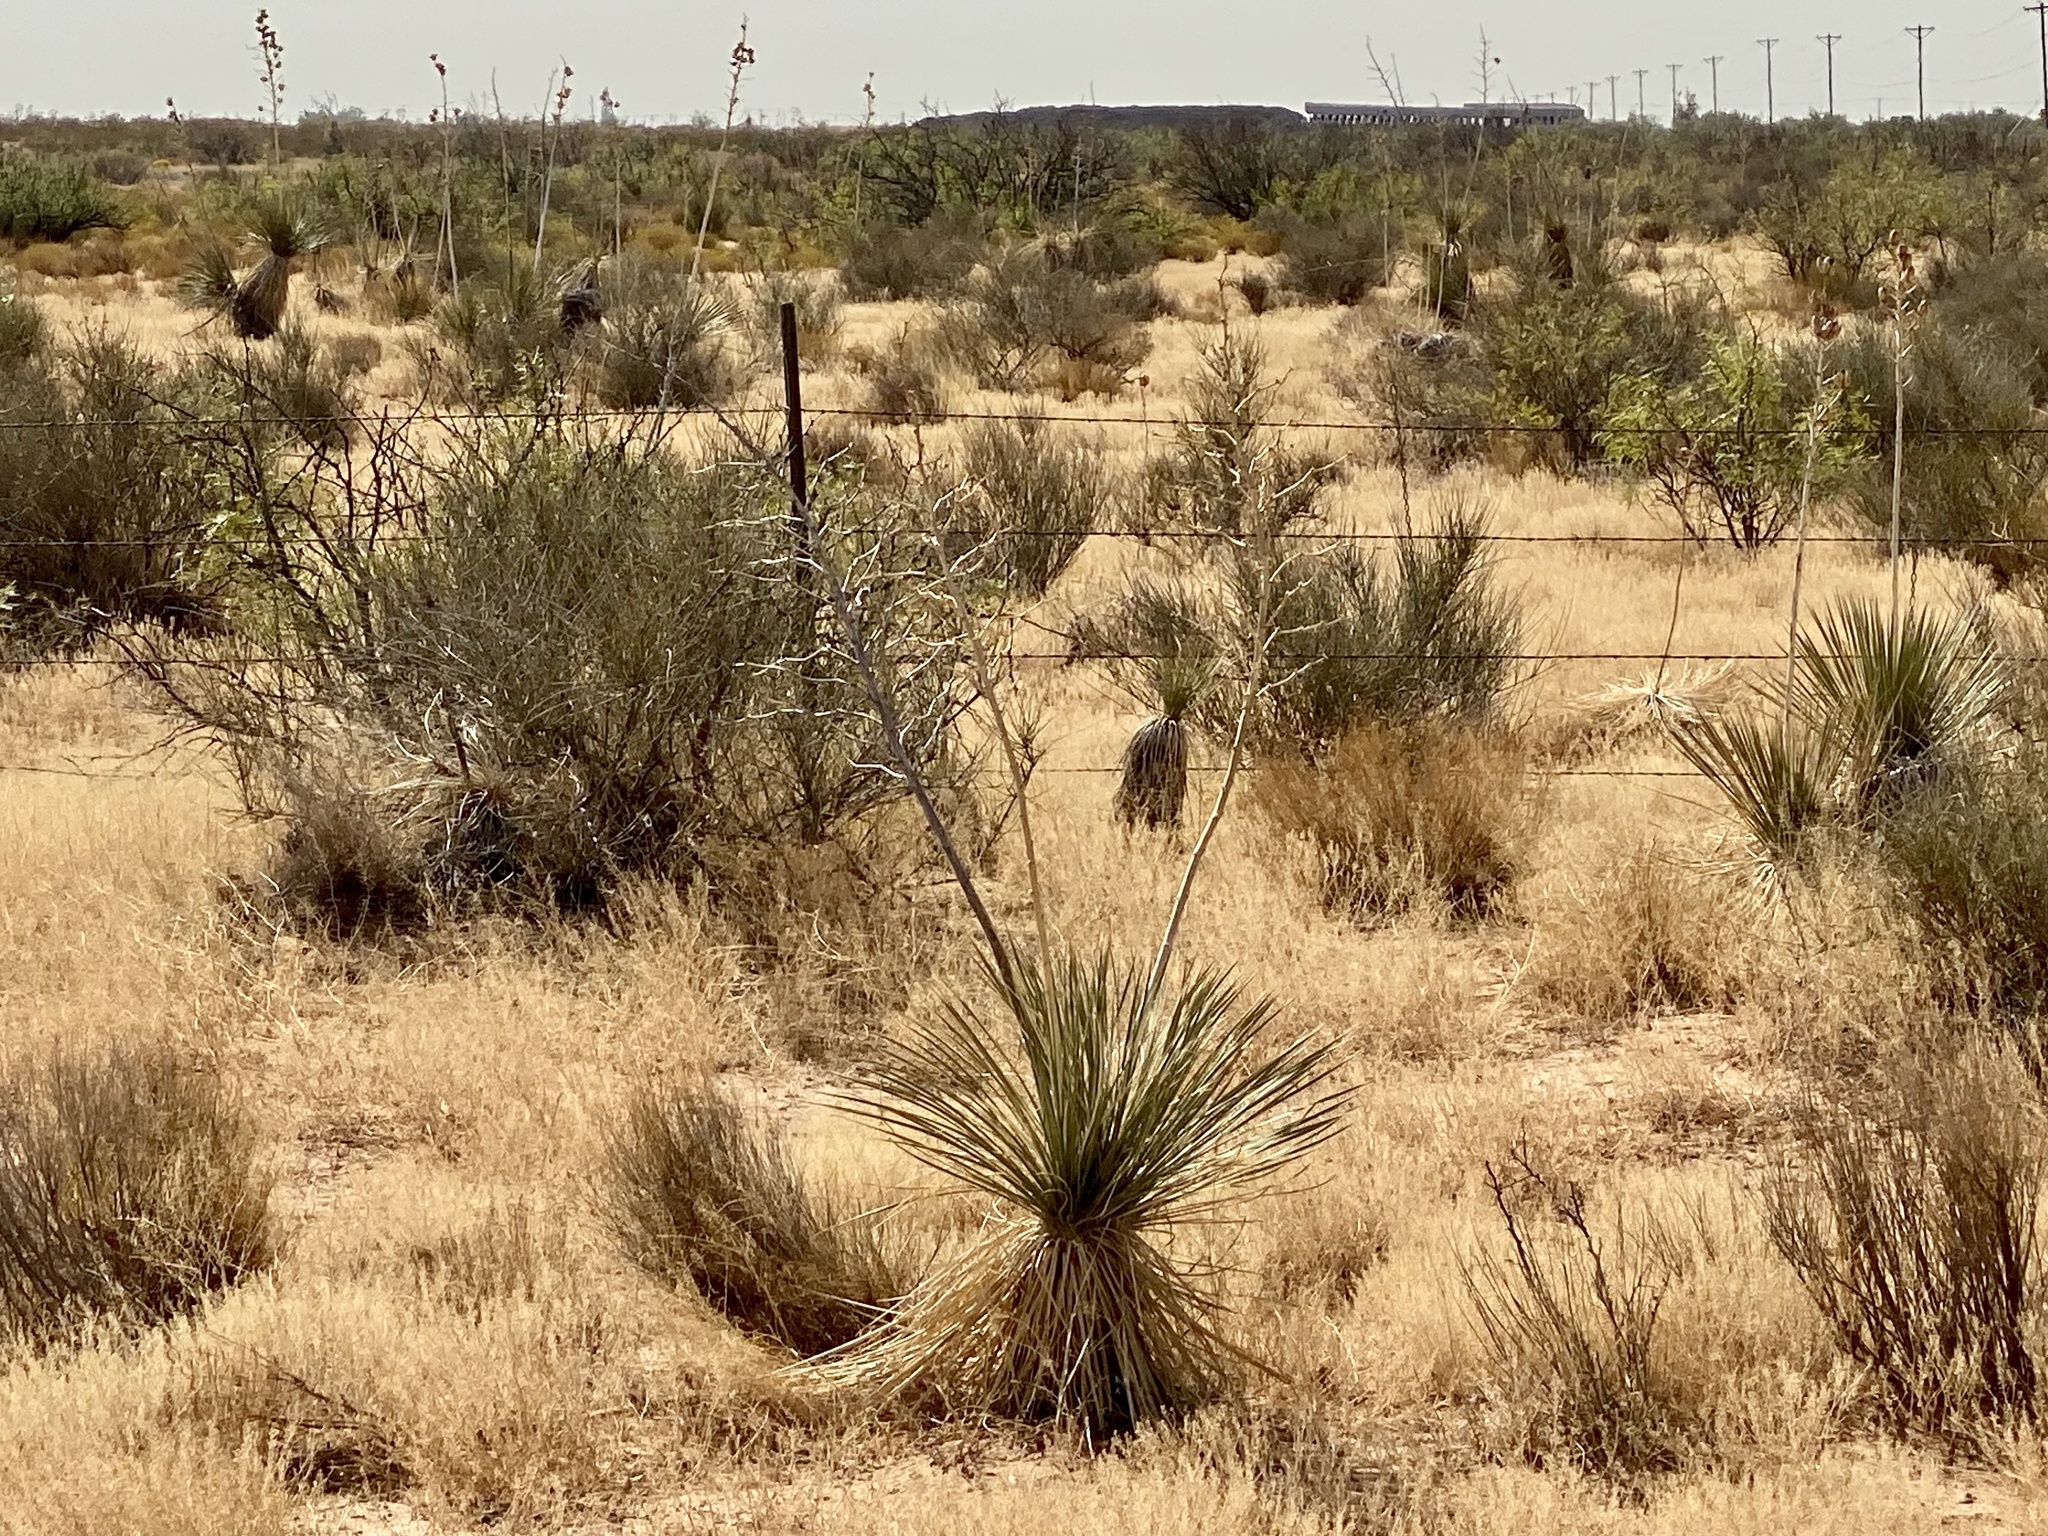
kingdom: Plantae
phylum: Tracheophyta
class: Liliopsida
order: Asparagales
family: Asparagaceae
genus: Yucca
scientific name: Yucca elata
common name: Palmella
